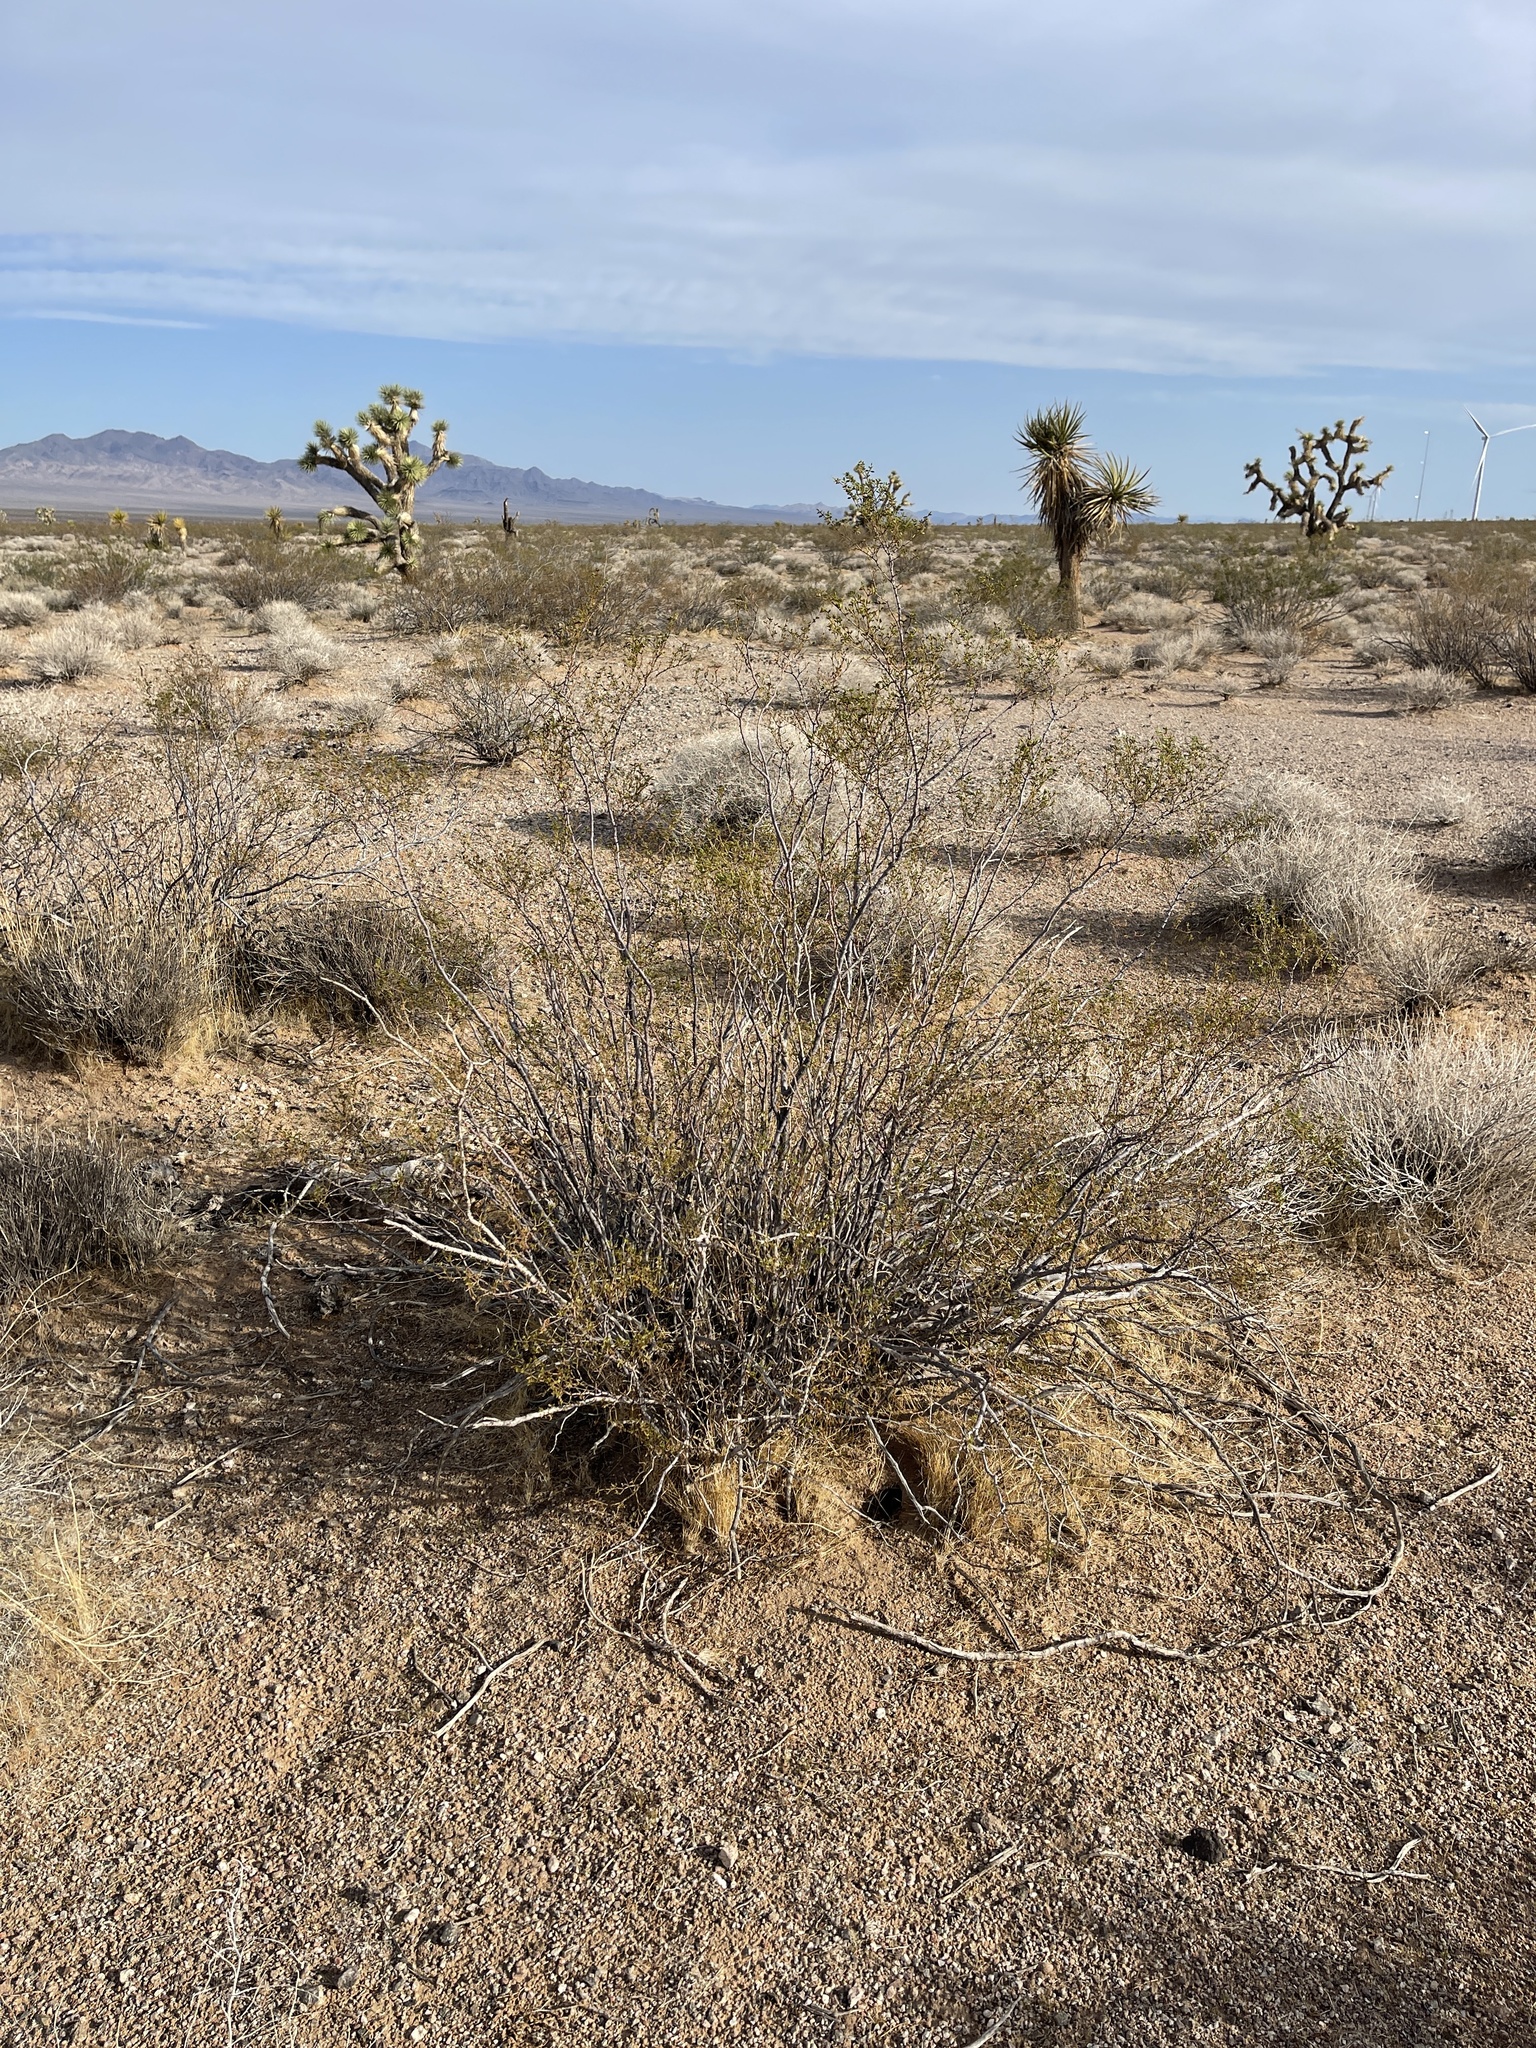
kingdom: Plantae
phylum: Tracheophyta
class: Magnoliopsida
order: Zygophyllales
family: Zygophyllaceae
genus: Larrea
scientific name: Larrea tridentata
